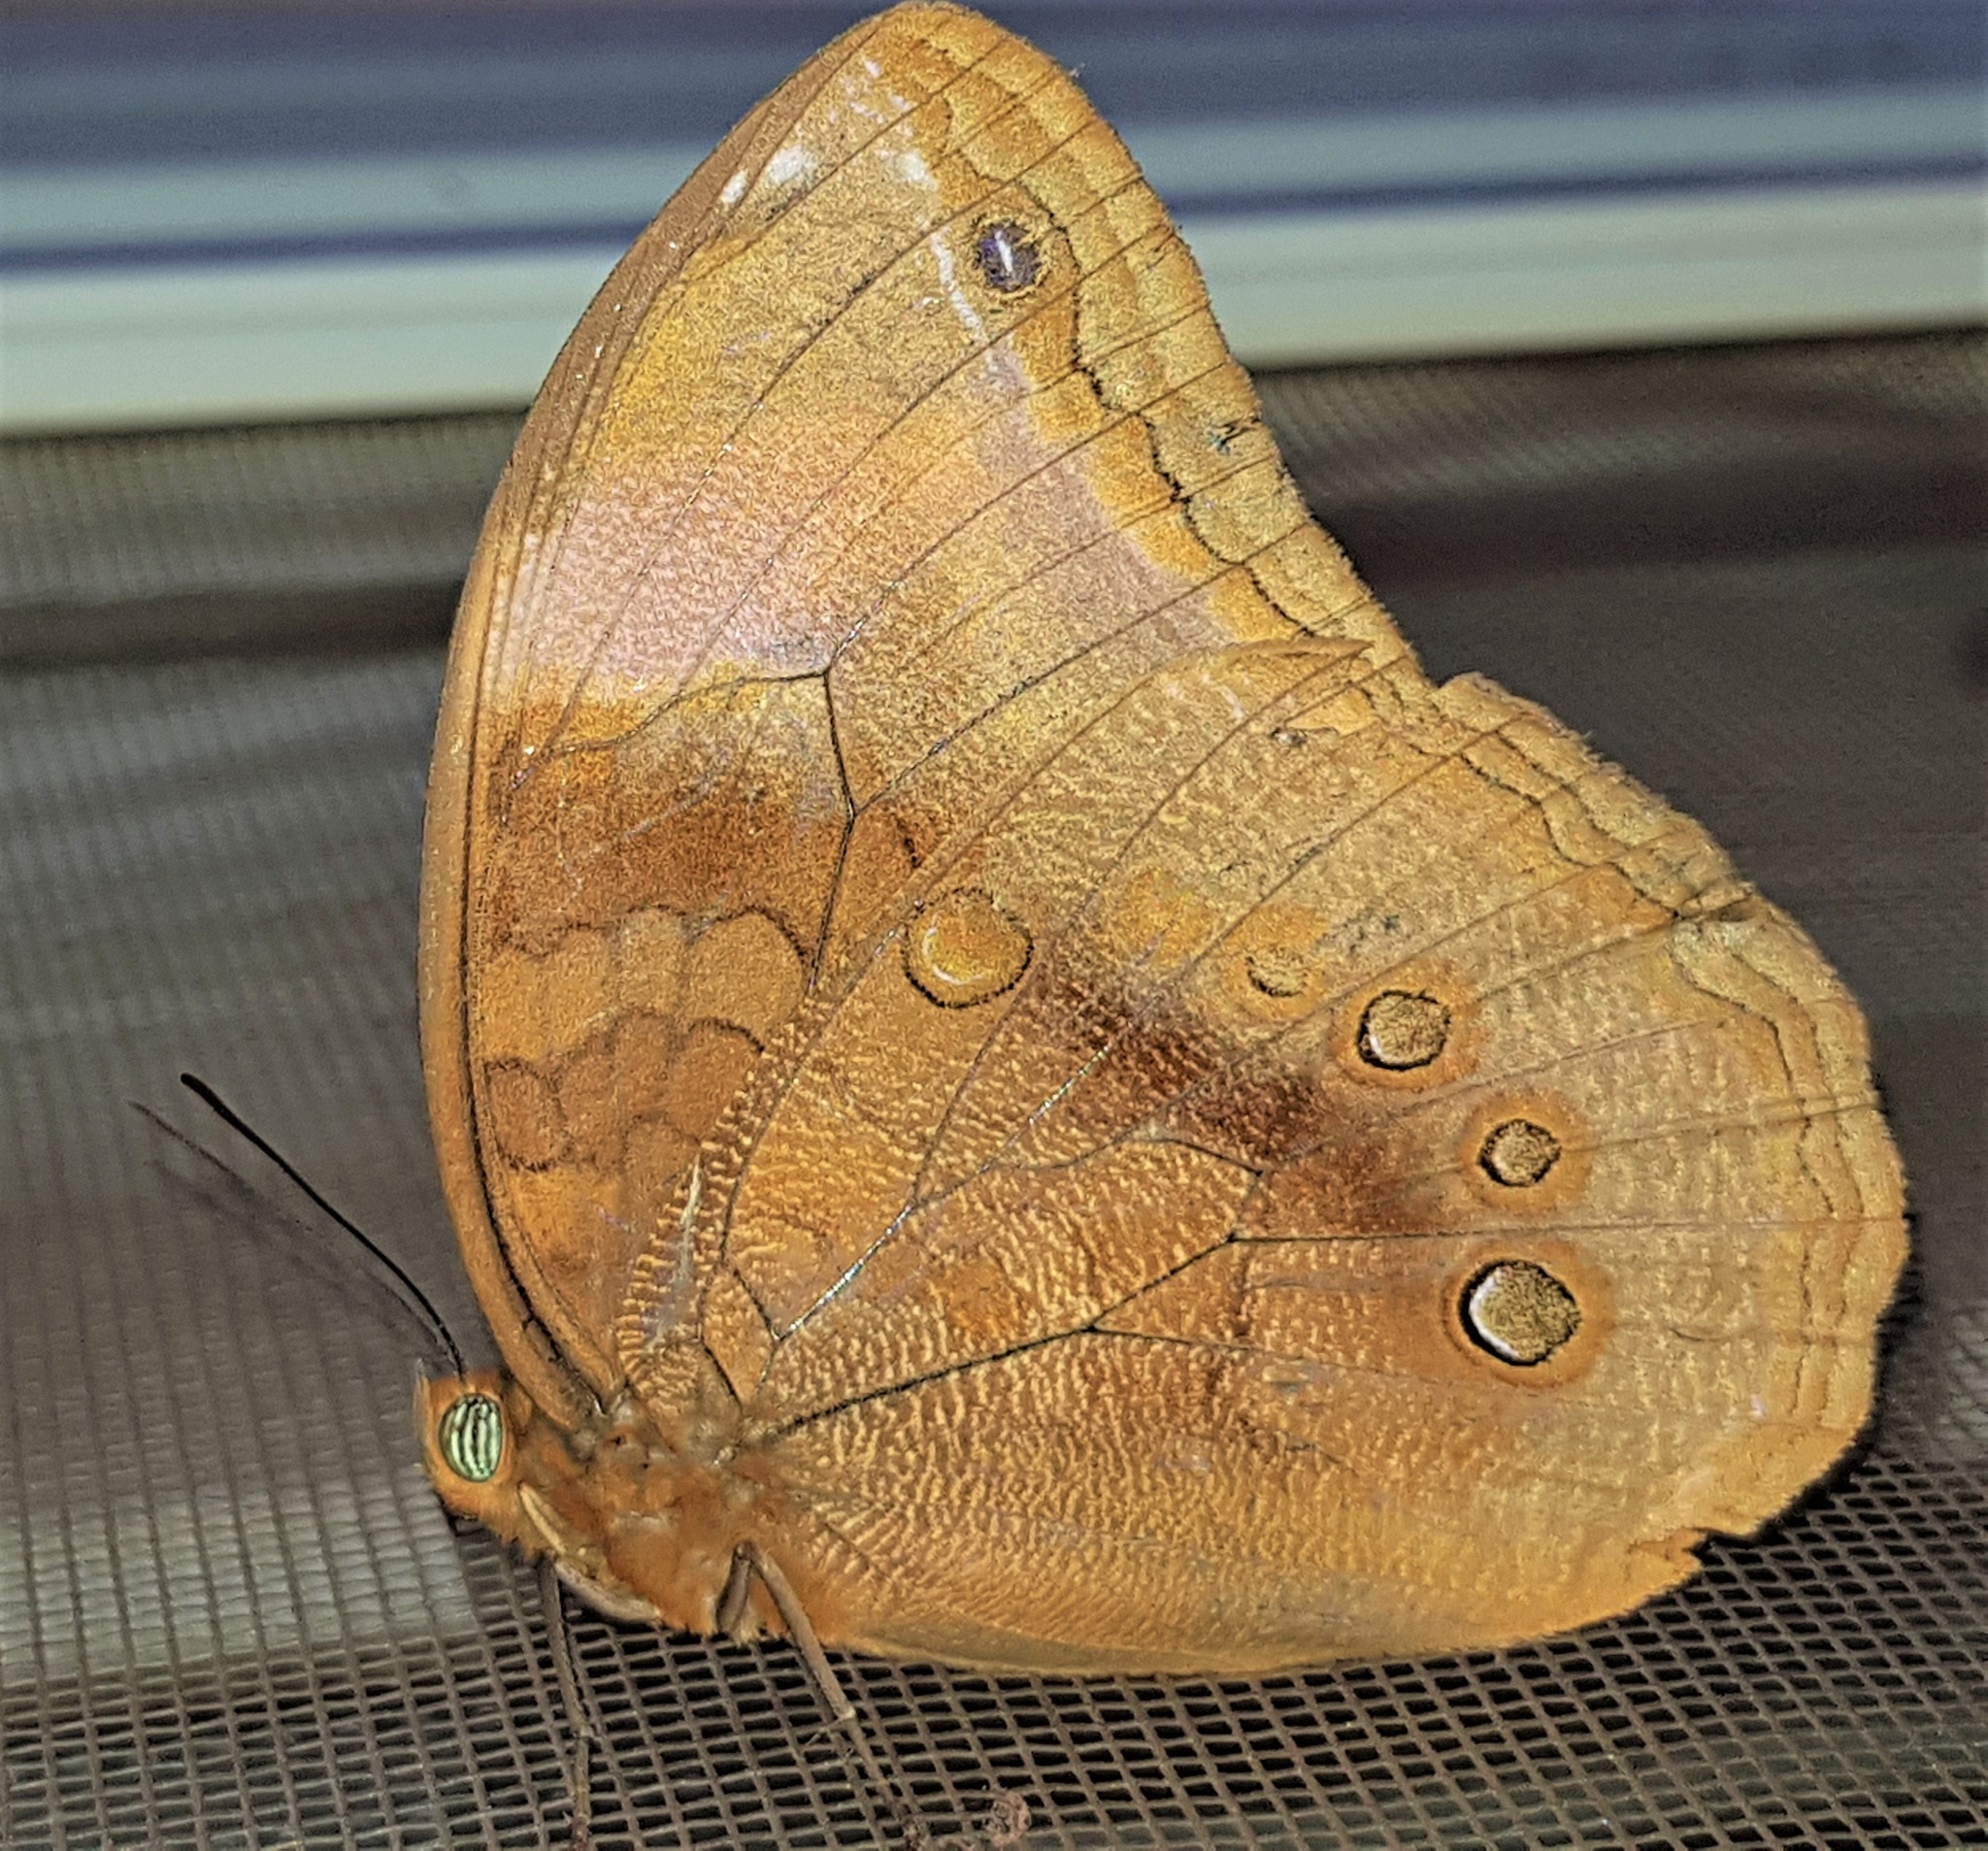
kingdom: Animalia
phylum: Arthropoda
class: Insecta
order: Lepidoptera
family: Nymphalidae
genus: Catoblepia
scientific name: Catoblepia berecynthia
